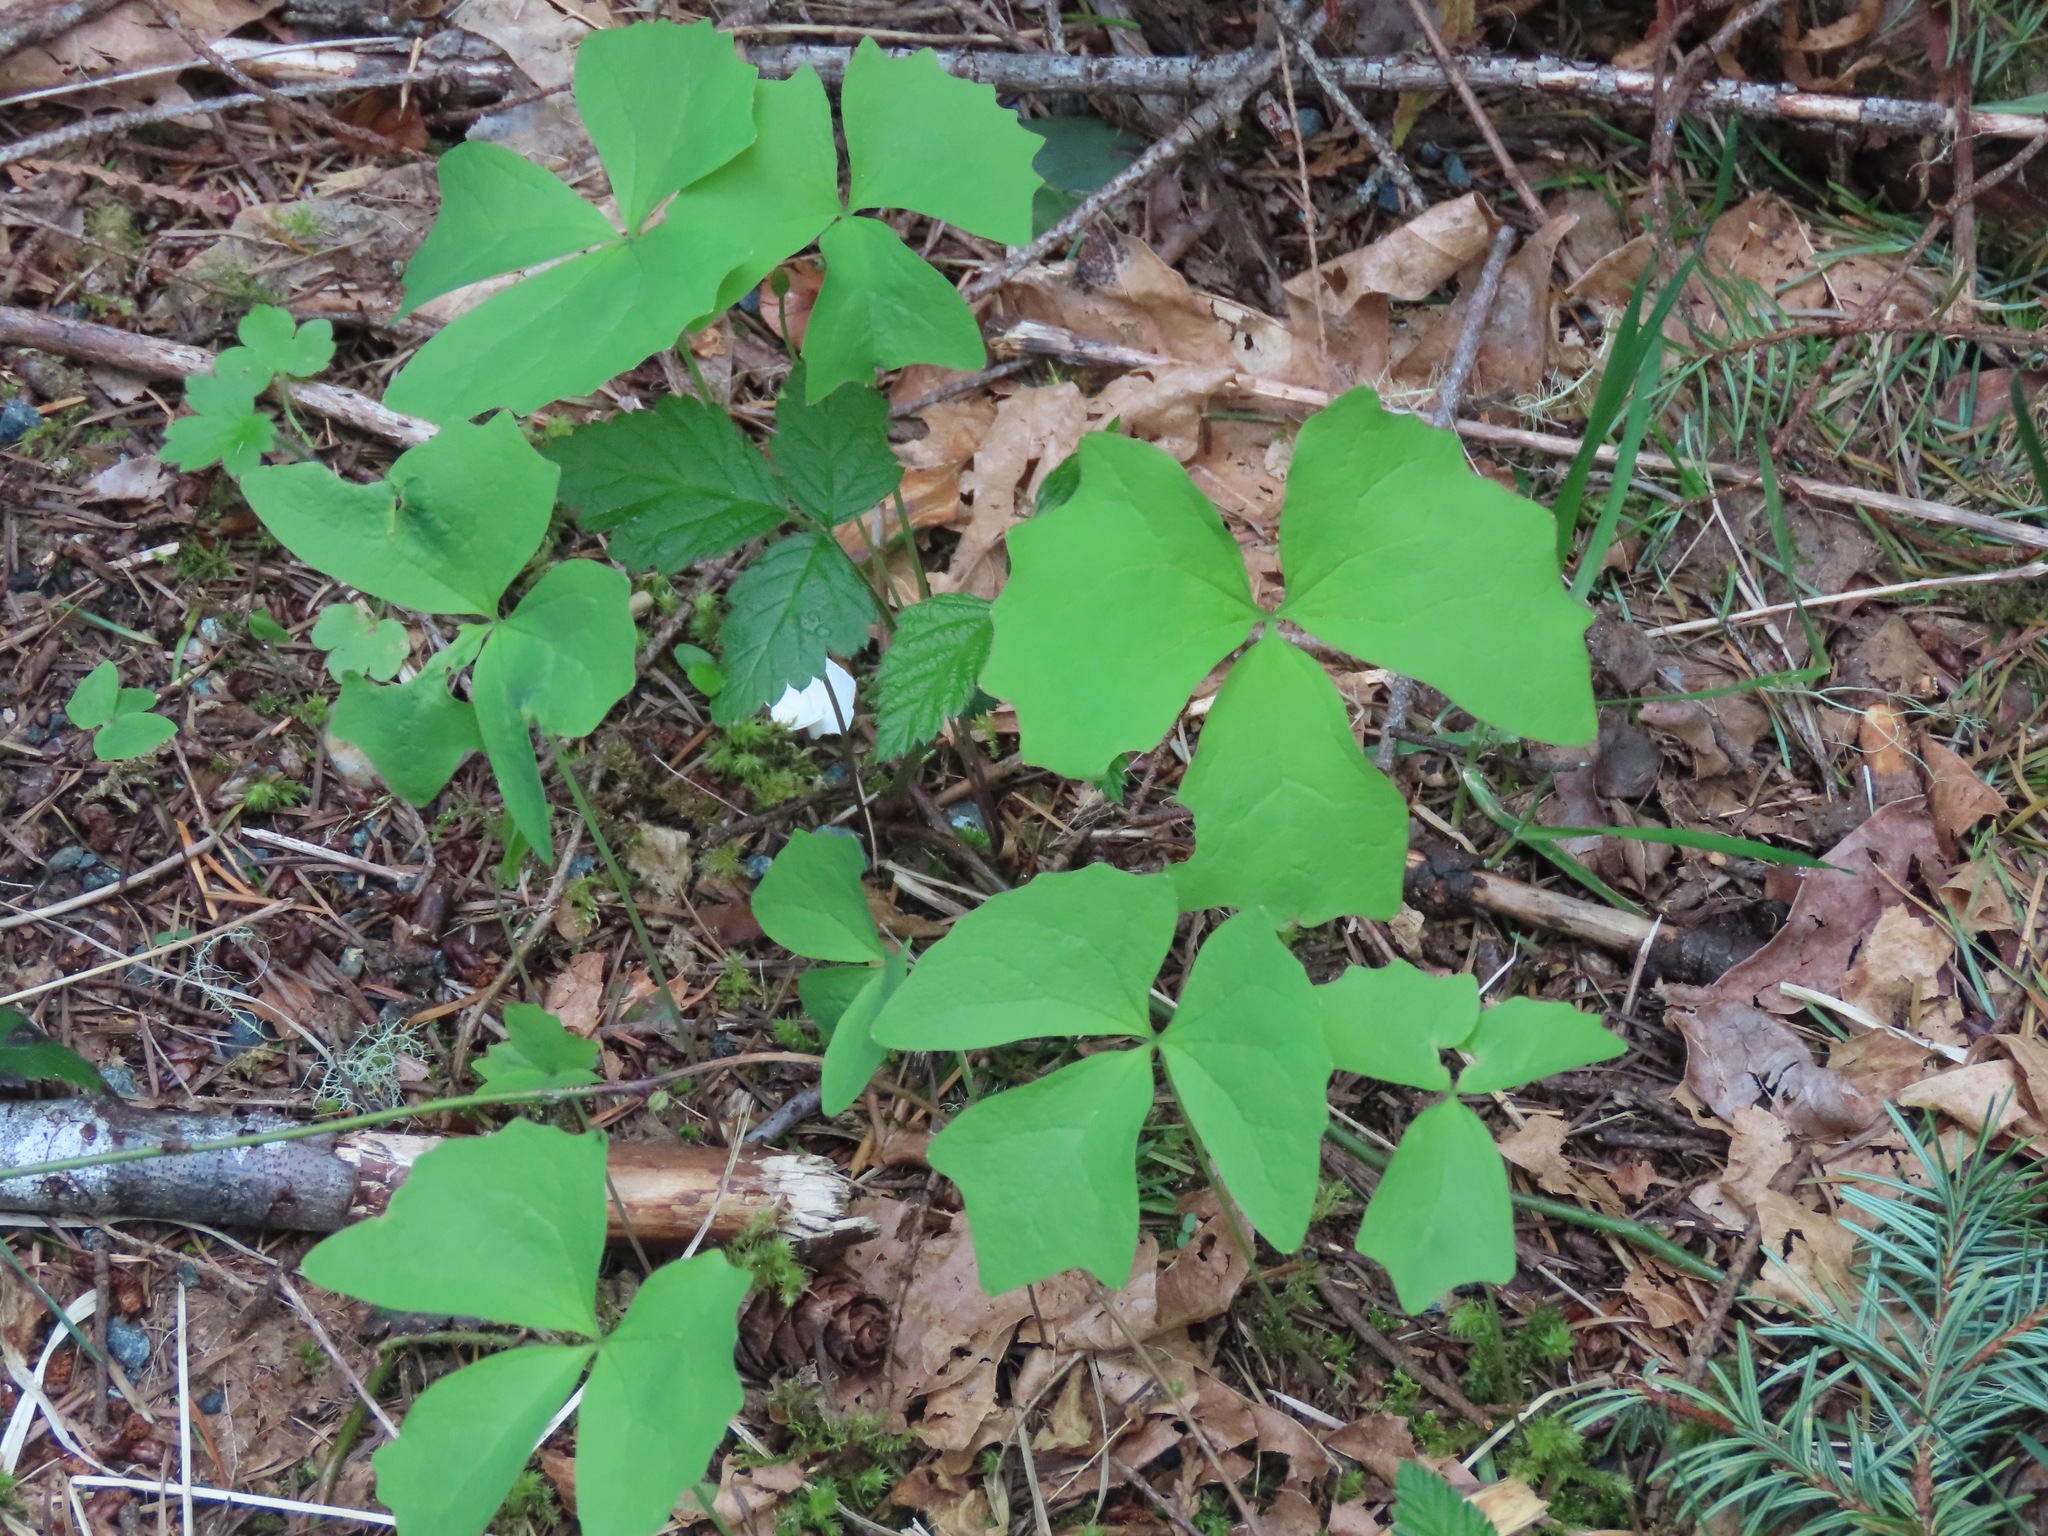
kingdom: Plantae
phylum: Tracheophyta
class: Magnoliopsida
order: Ranunculales
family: Berberidaceae
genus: Achlys
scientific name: Achlys triphylla
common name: Vanilla-leaf
